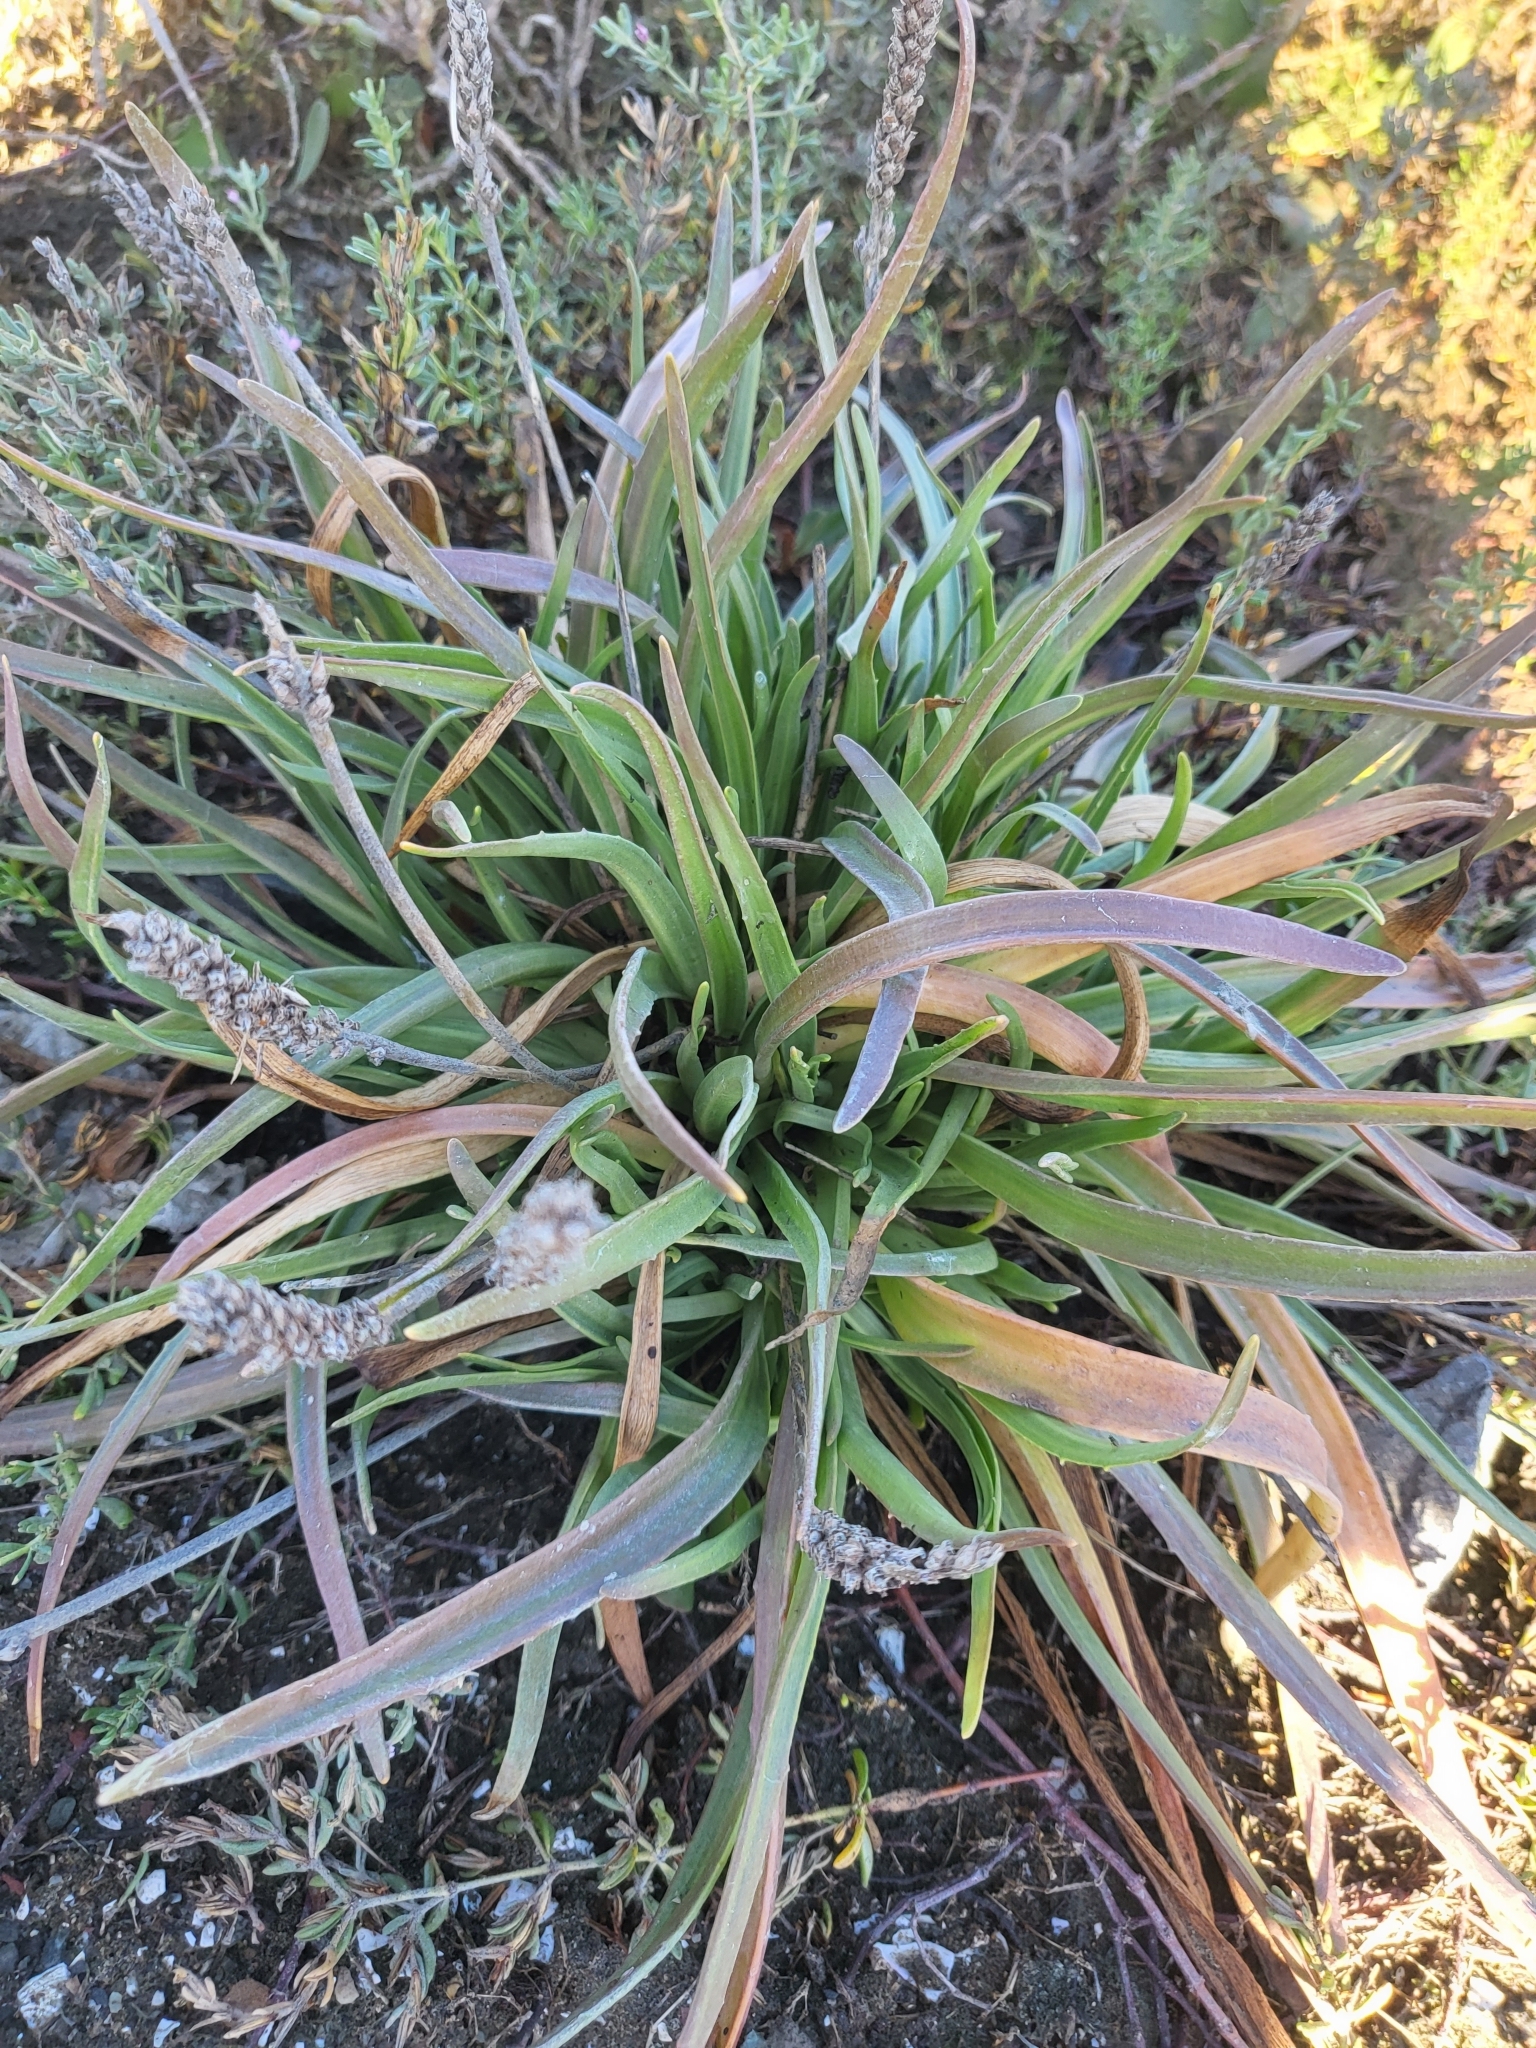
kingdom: Plantae
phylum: Tracheophyta
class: Magnoliopsida
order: Lamiales
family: Plantaginaceae
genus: Plantago
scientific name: Plantago maritima
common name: Sea plantain
